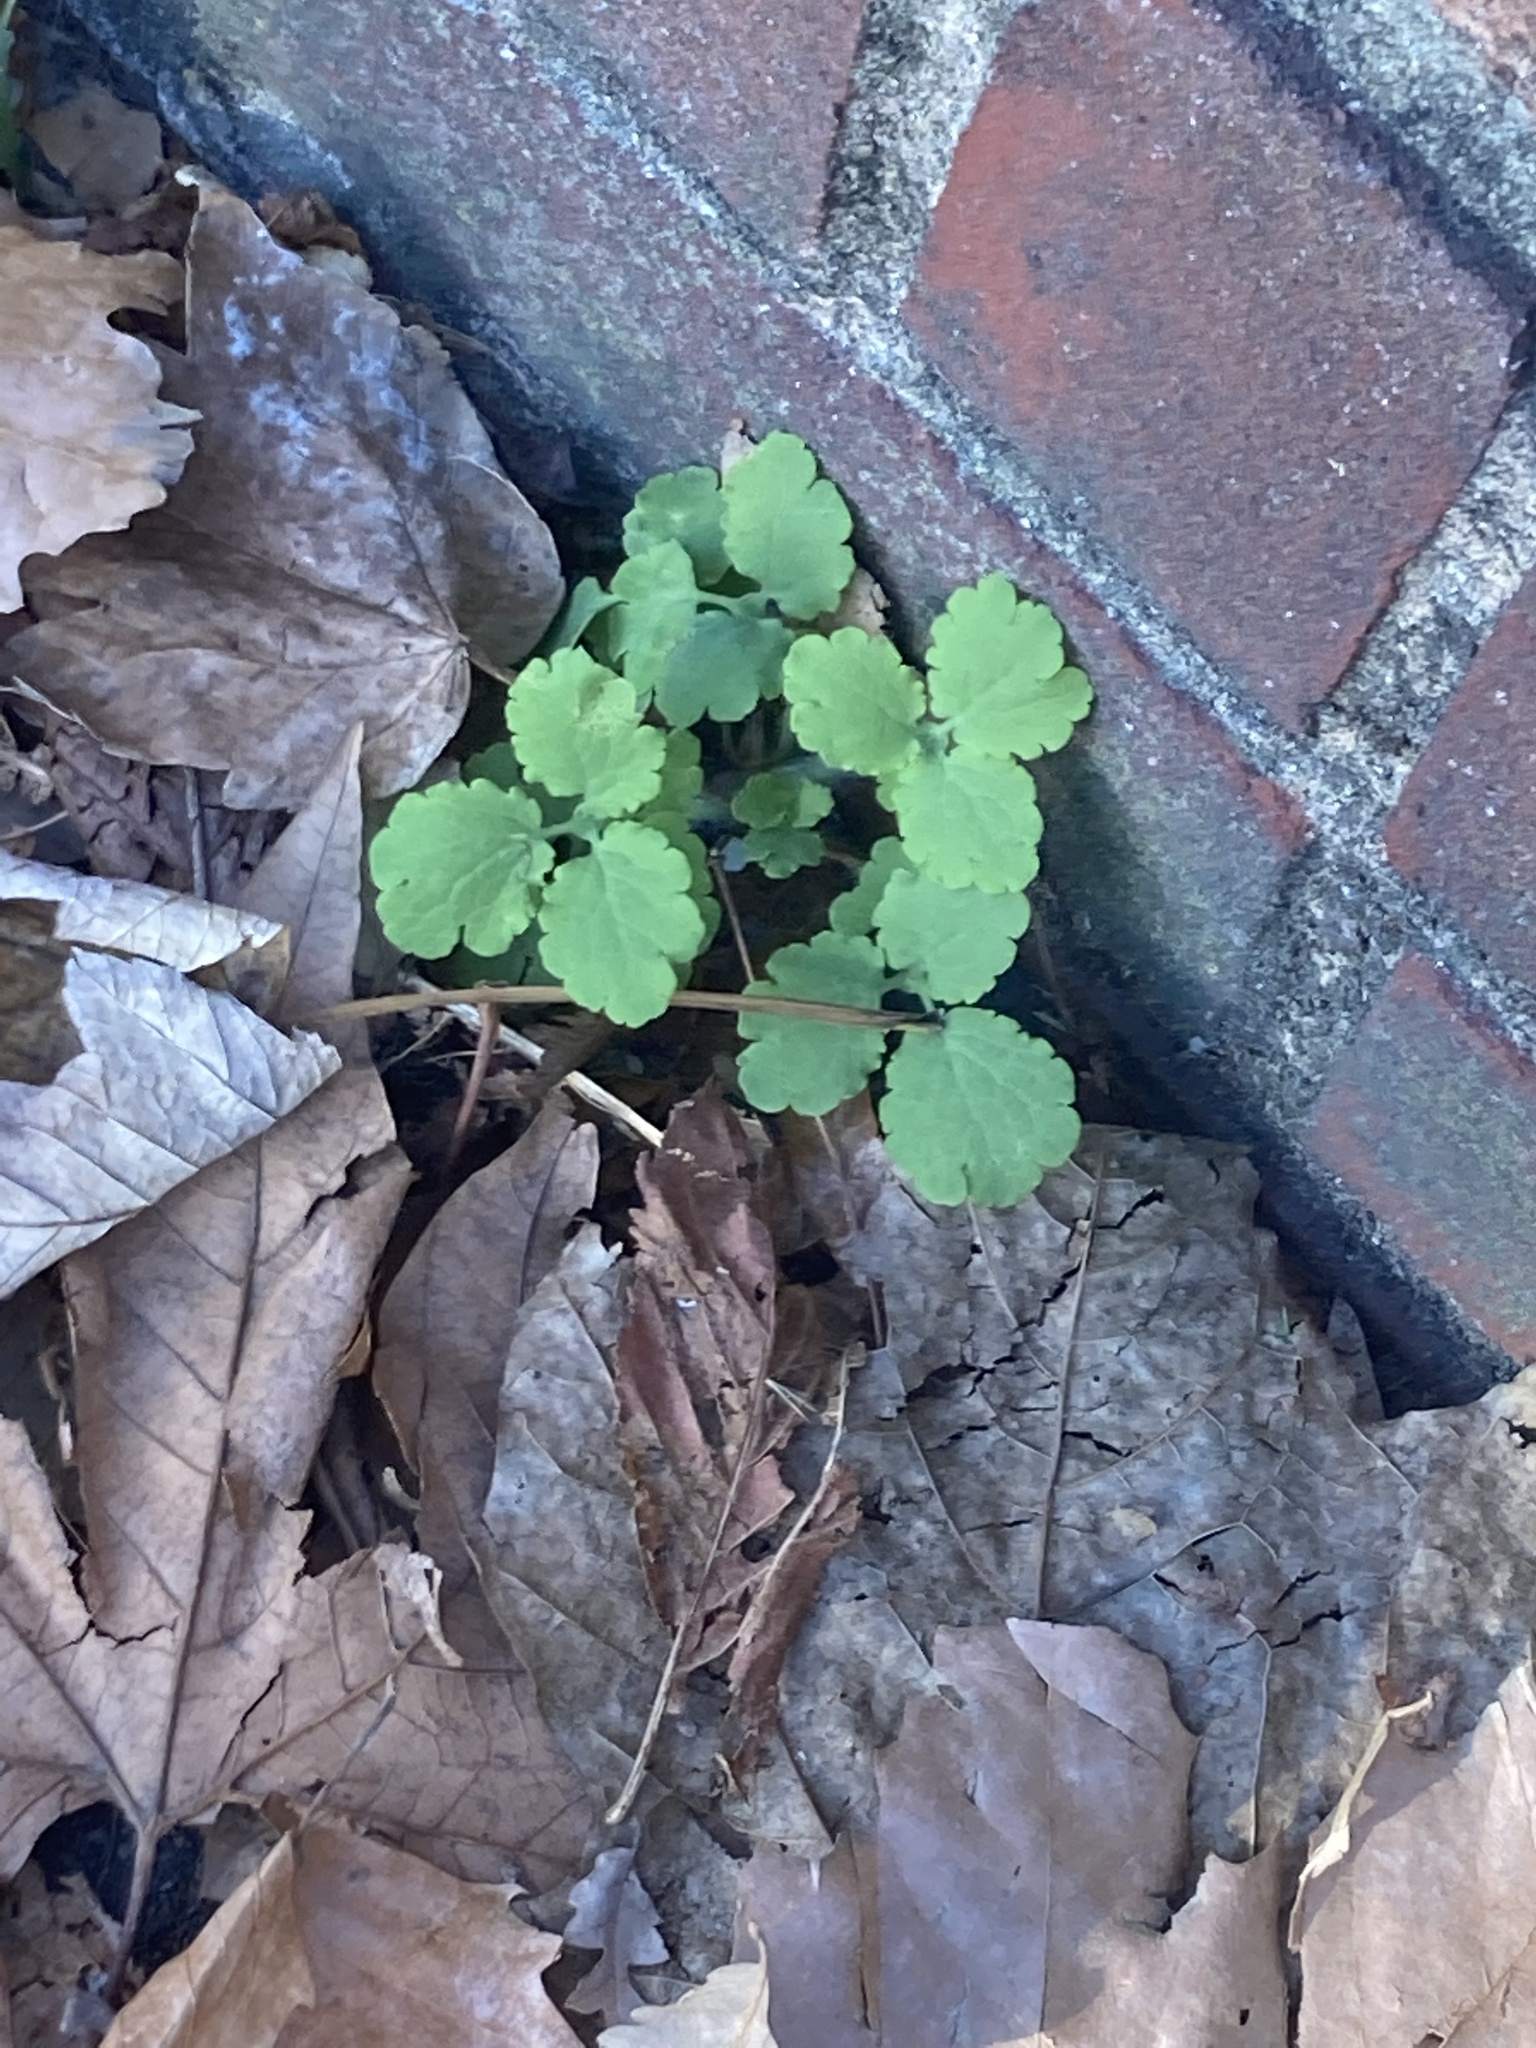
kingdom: Plantae
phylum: Tracheophyta
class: Magnoliopsida
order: Ranunculales
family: Papaveraceae
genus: Chelidonium
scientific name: Chelidonium majus
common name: Greater celandine
